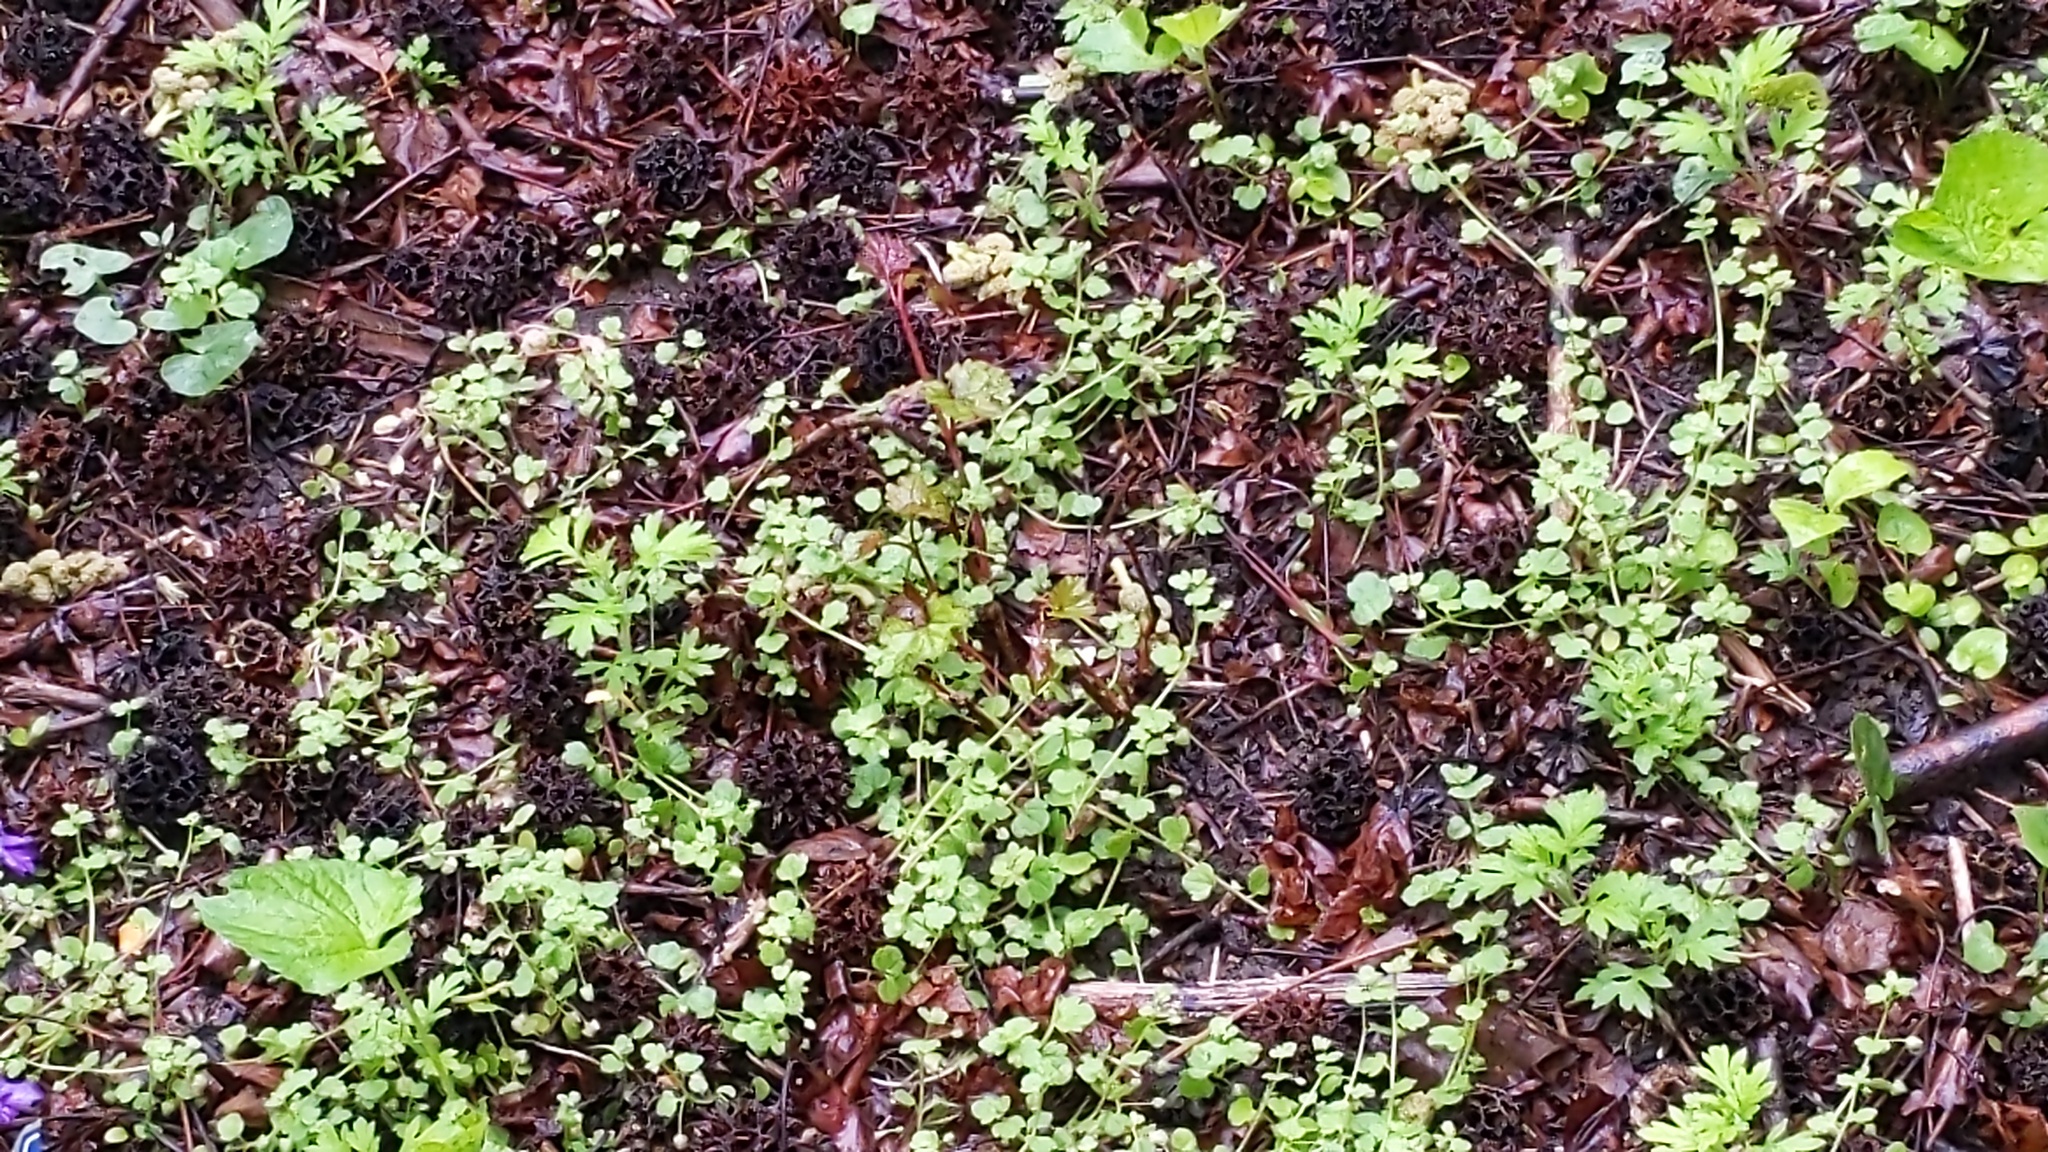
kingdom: Plantae
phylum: Tracheophyta
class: Magnoliopsida
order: Saxifragales
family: Altingiaceae
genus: Liquidambar
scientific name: Liquidambar styraciflua
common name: Sweet gum
